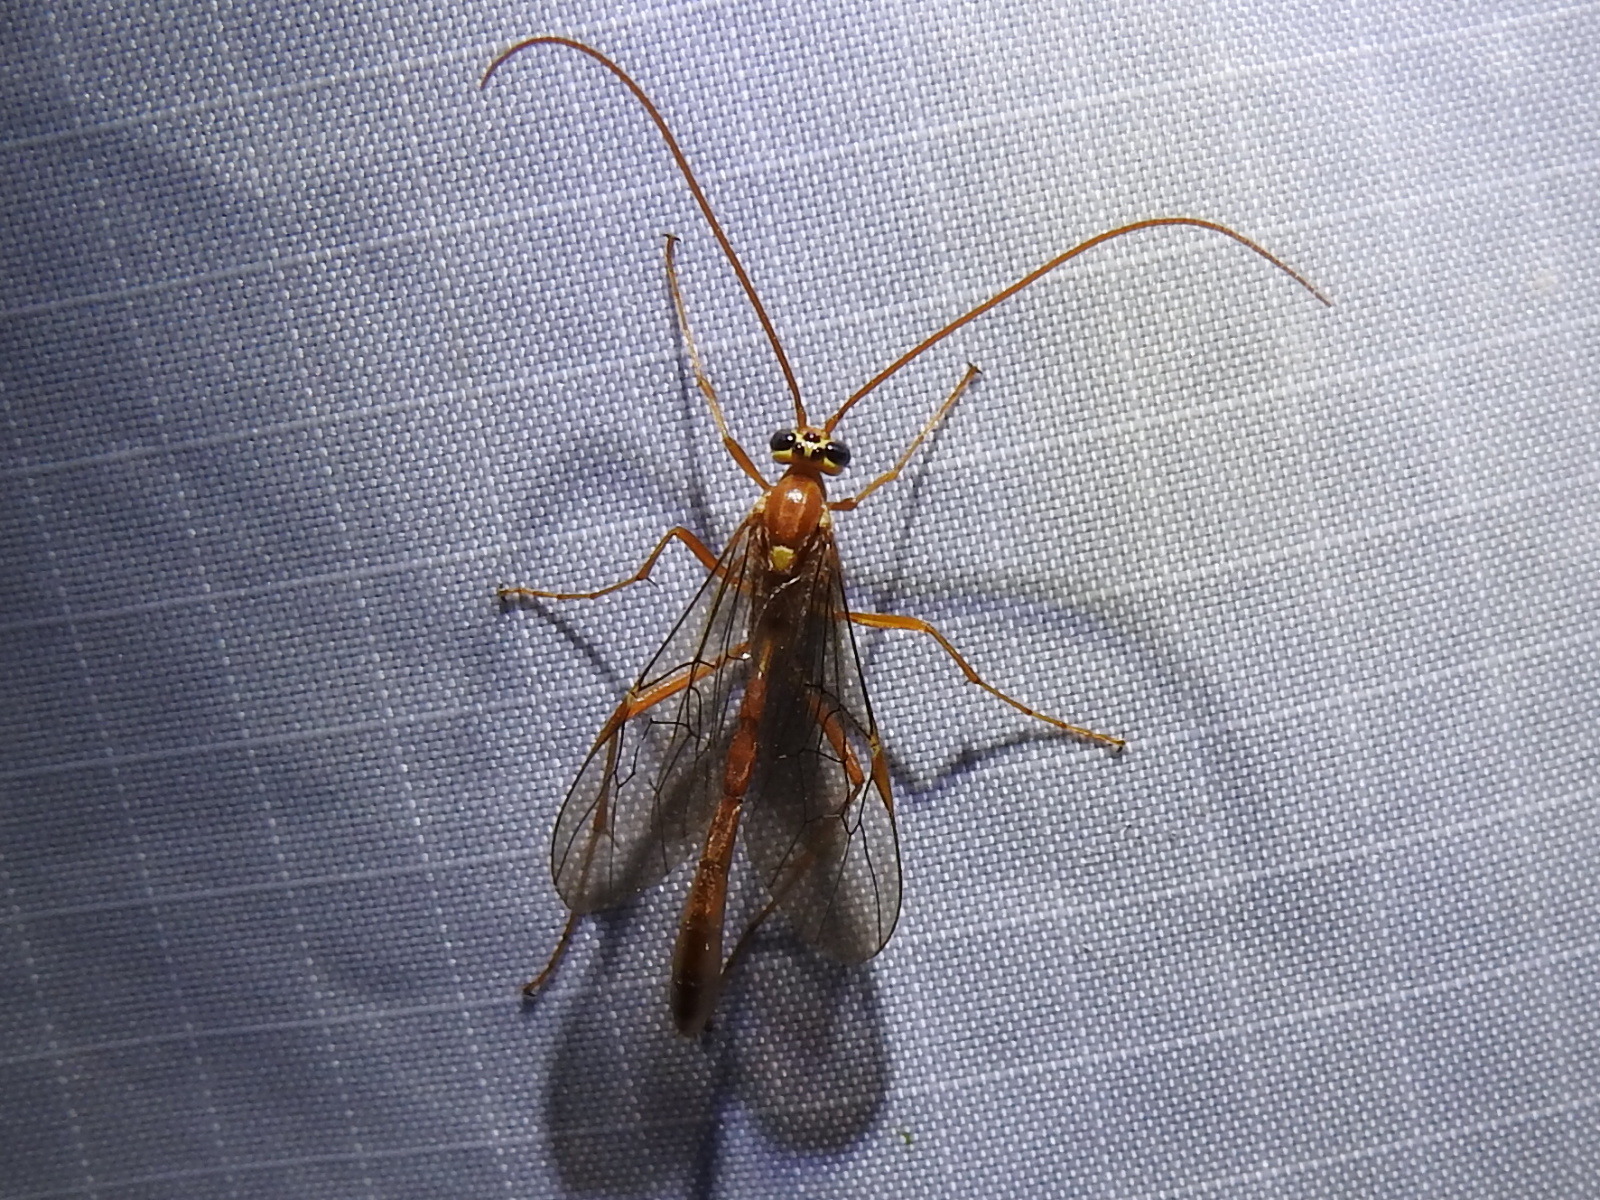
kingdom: Animalia
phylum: Arthropoda
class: Insecta
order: Hymenoptera
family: Ichneumonidae
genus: Ophion
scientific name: Ophion
